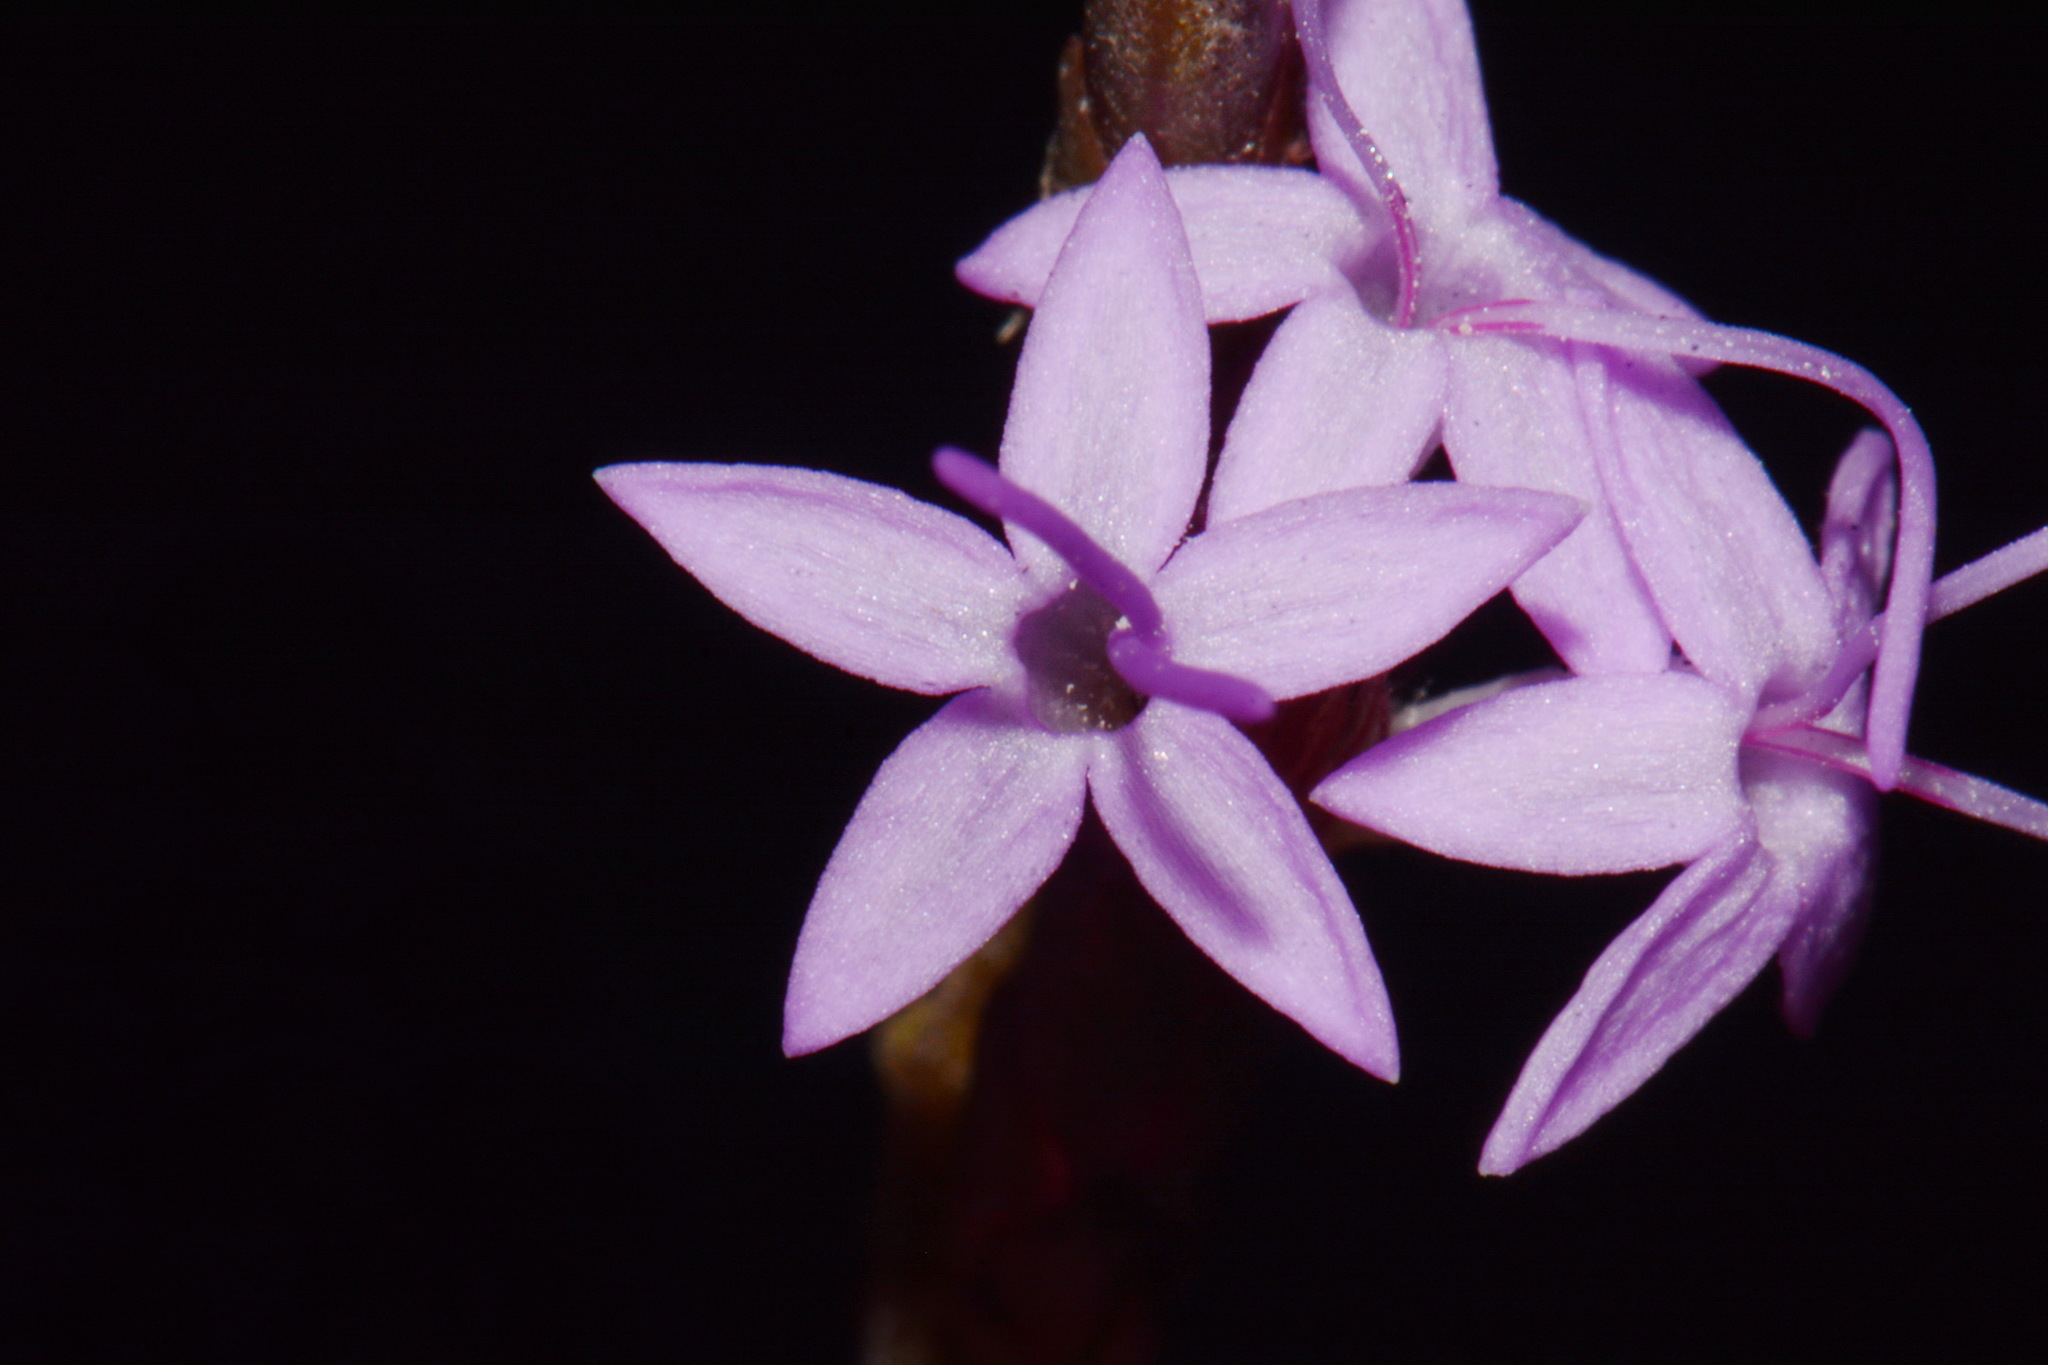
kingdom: Plantae
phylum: Tracheophyta
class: Magnoliopsida
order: Asterales
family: Asteraceae
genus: Liatris
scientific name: Liatris pauciflora
